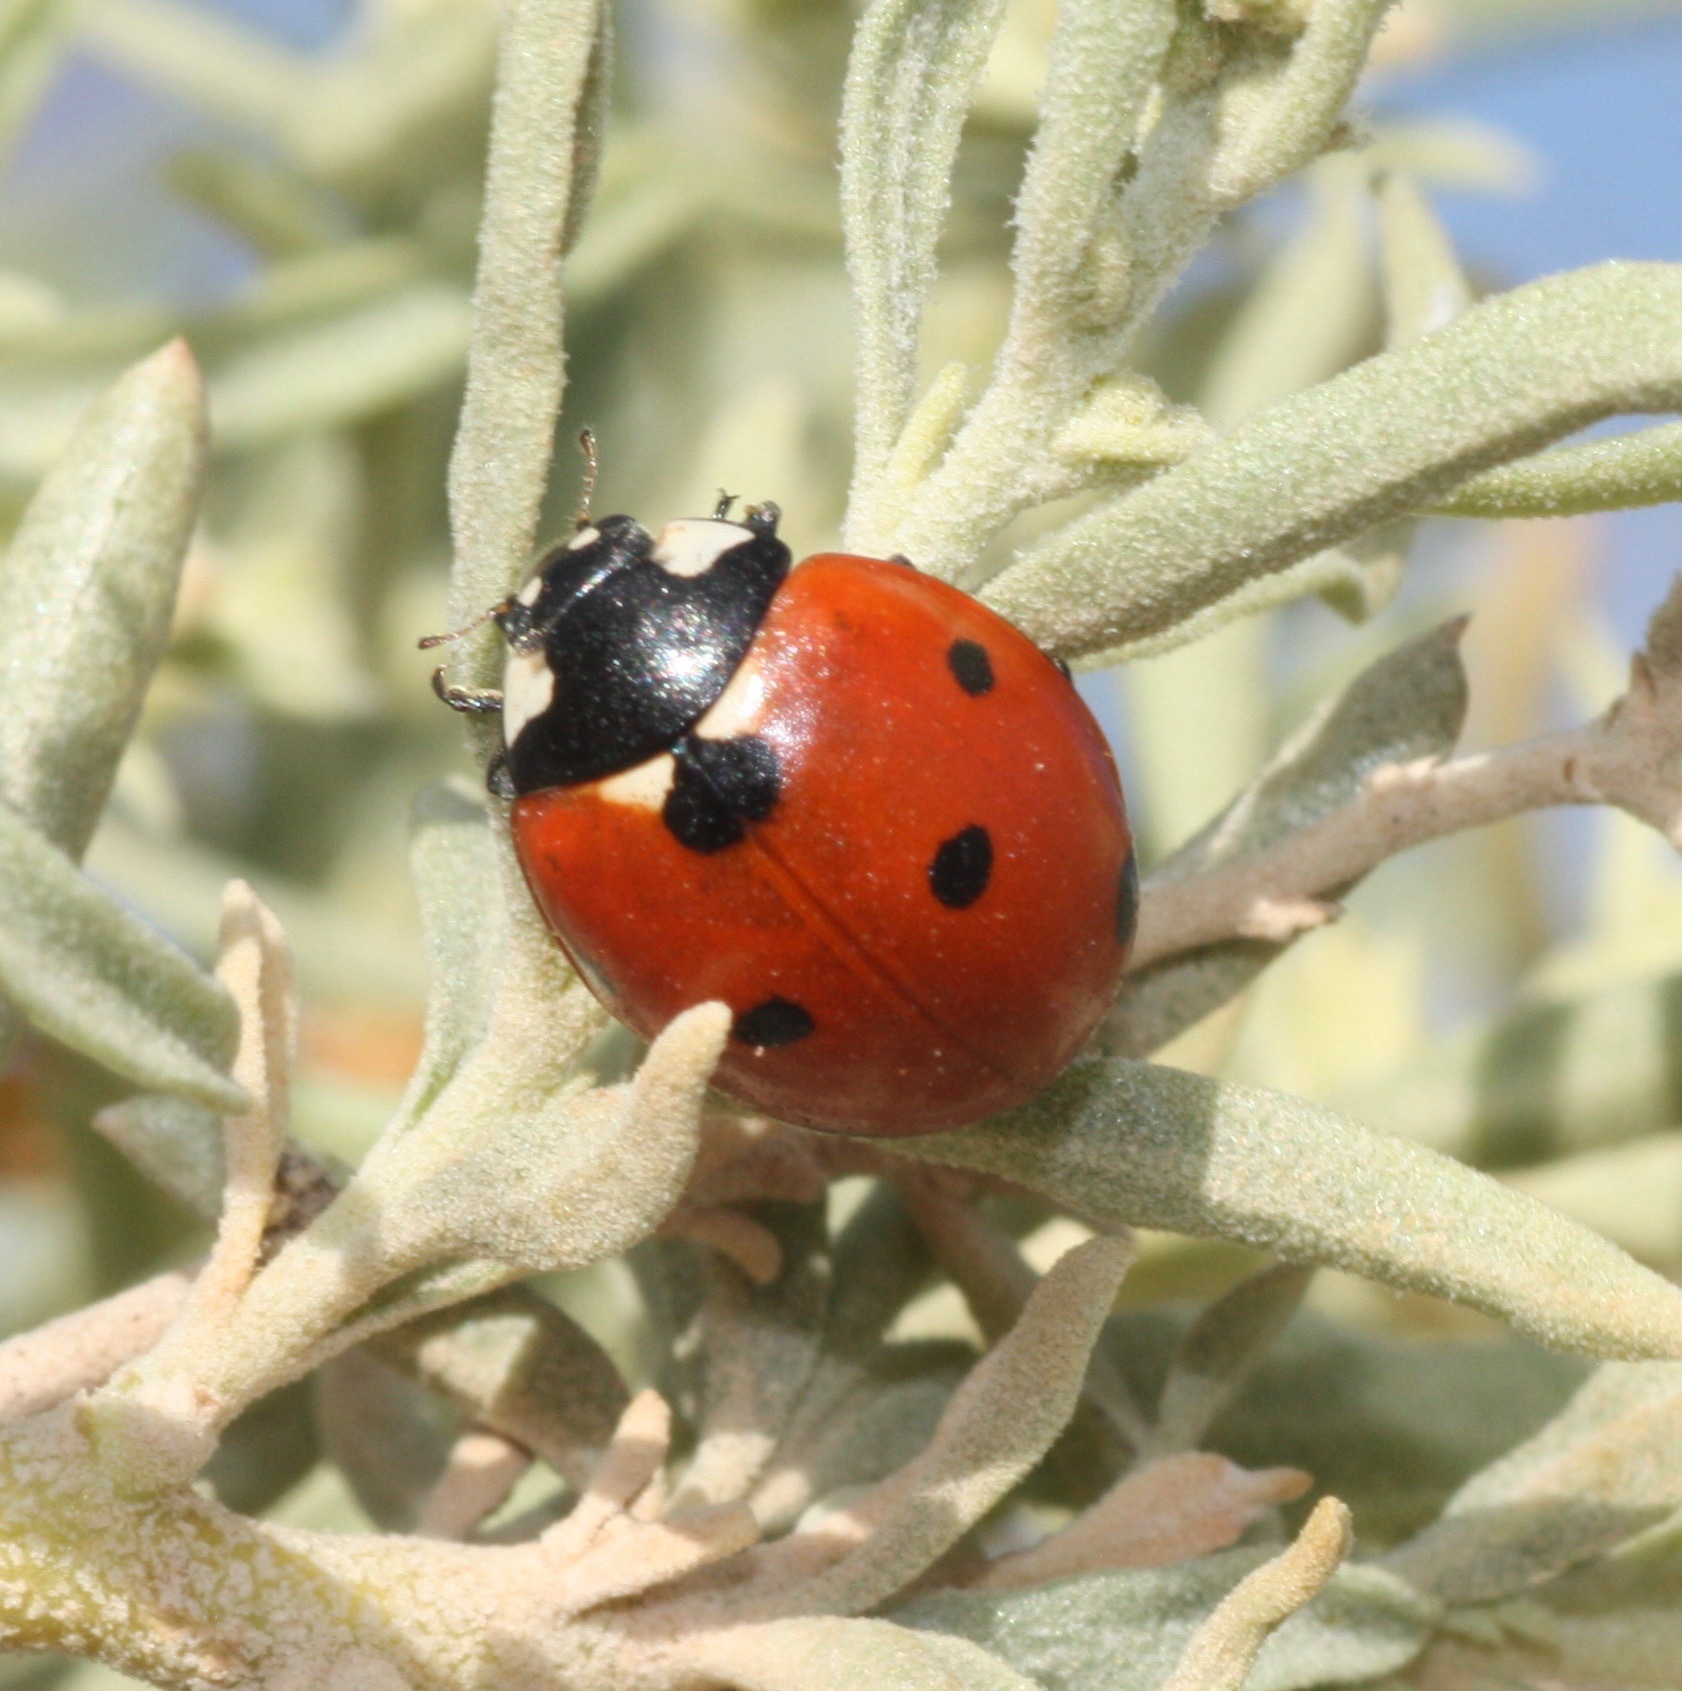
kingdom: Animalia
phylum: Arthropoda
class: Insecta
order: Coleoptera
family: Coccinellidae
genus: Coccinella
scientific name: Coccinella septempunctata
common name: Sevenspotted lady beetle
